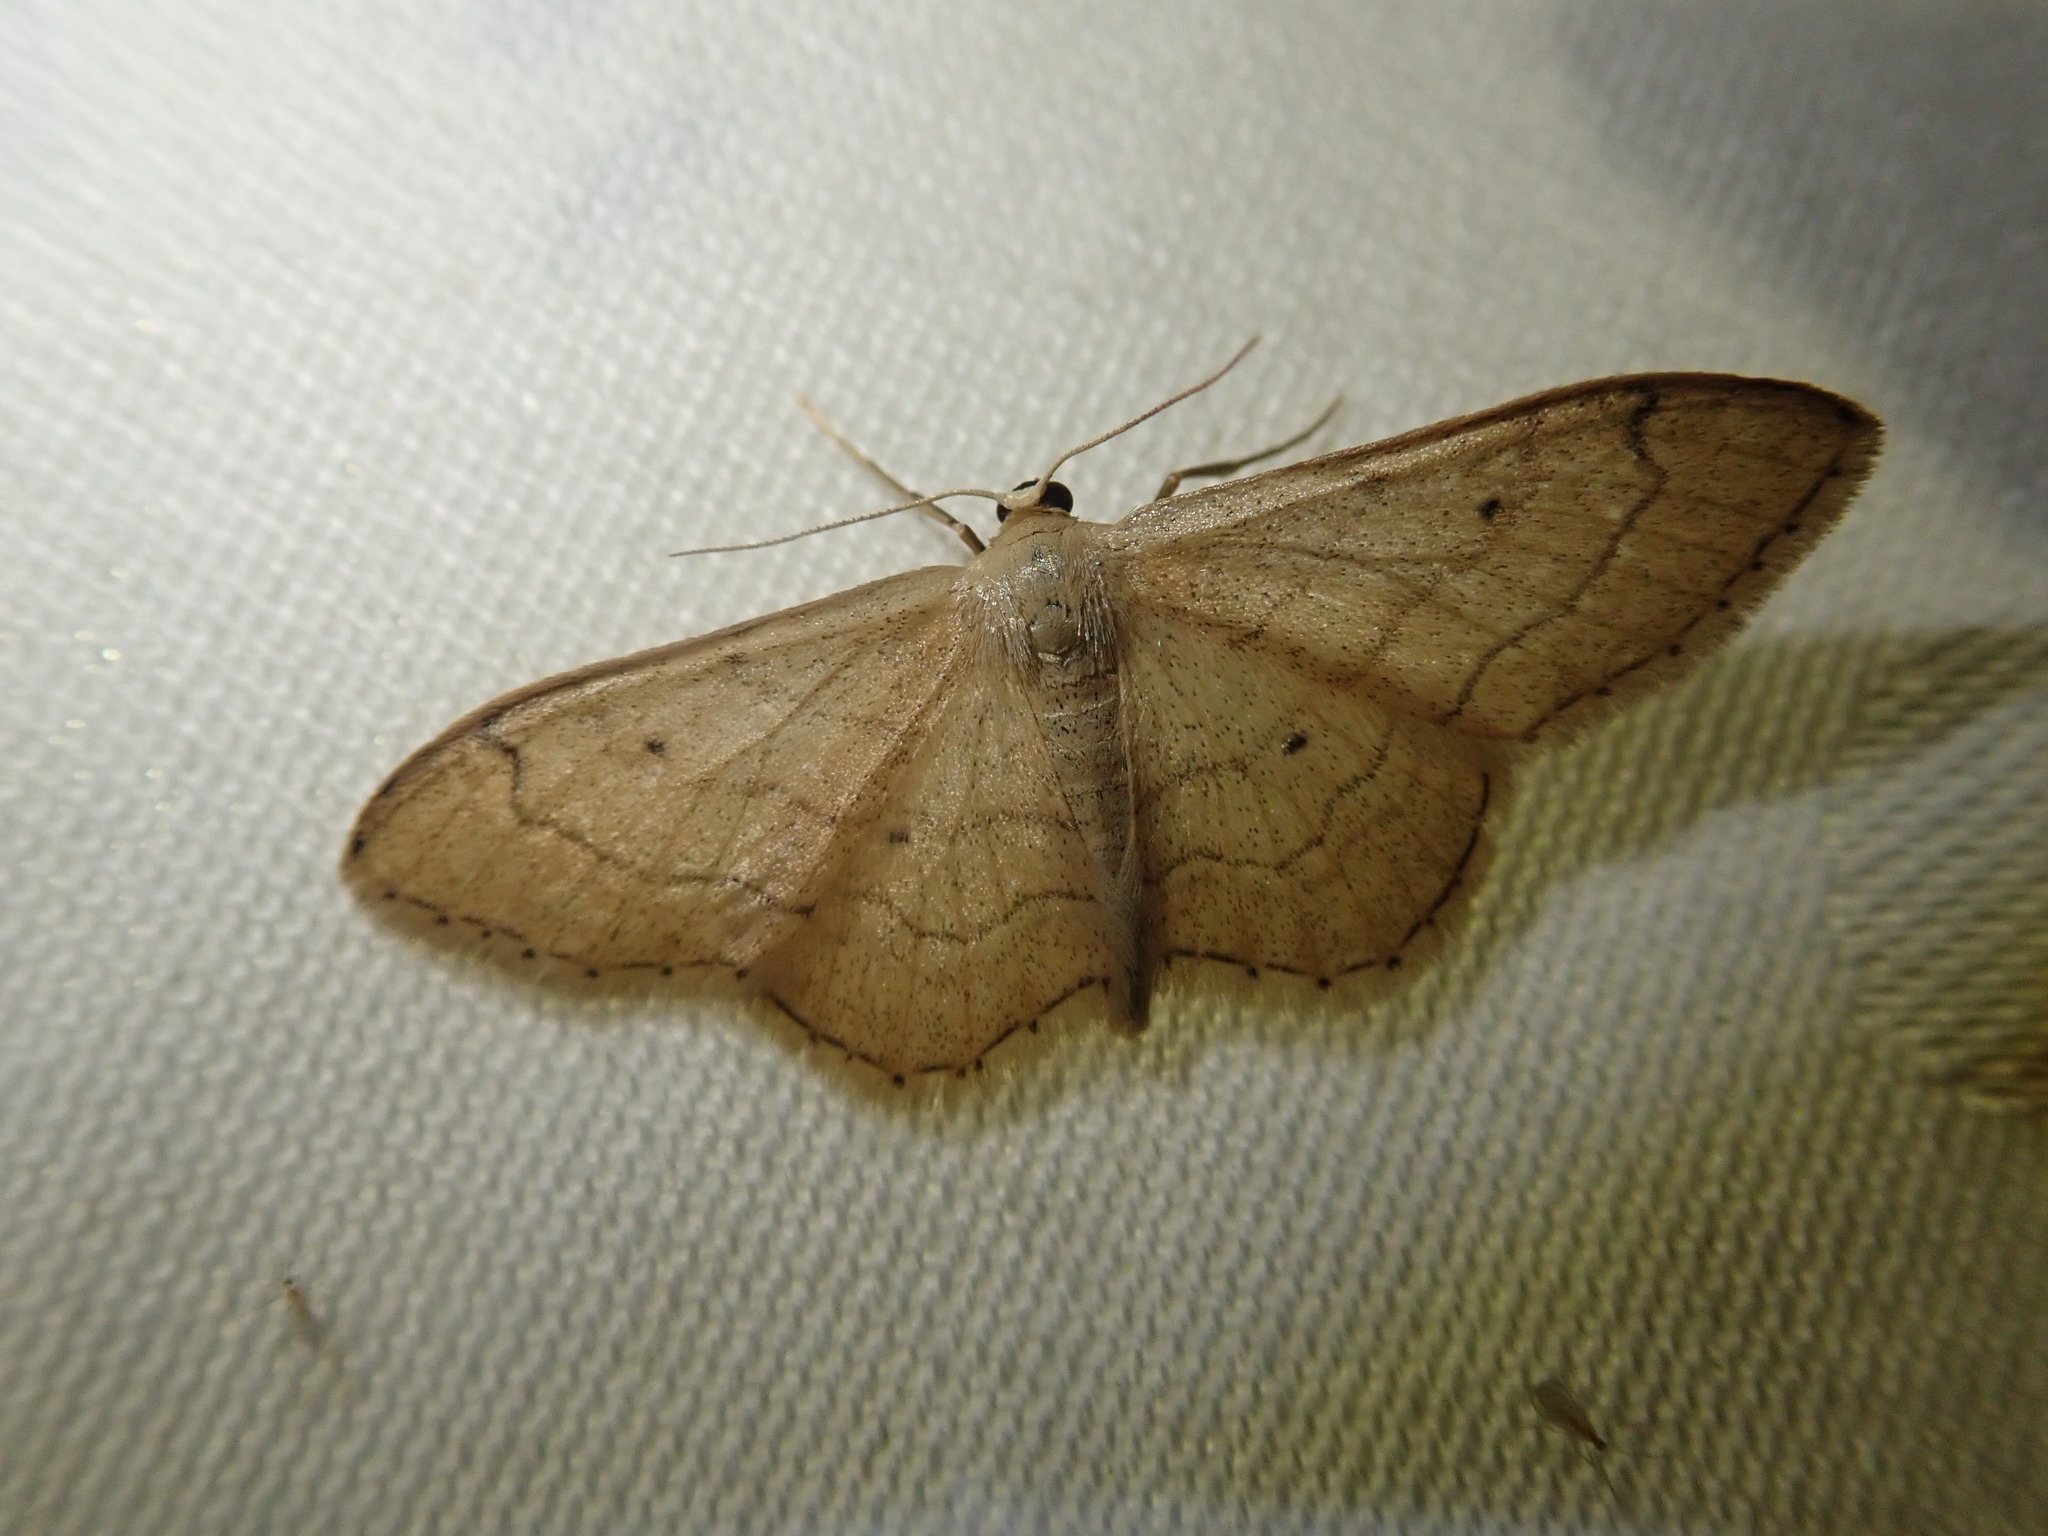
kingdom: Animalia
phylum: Arthropoda
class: Insecta
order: Lepidoptera
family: Geometridae
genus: Idaea
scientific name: Idaea aversata
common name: Riband wave
